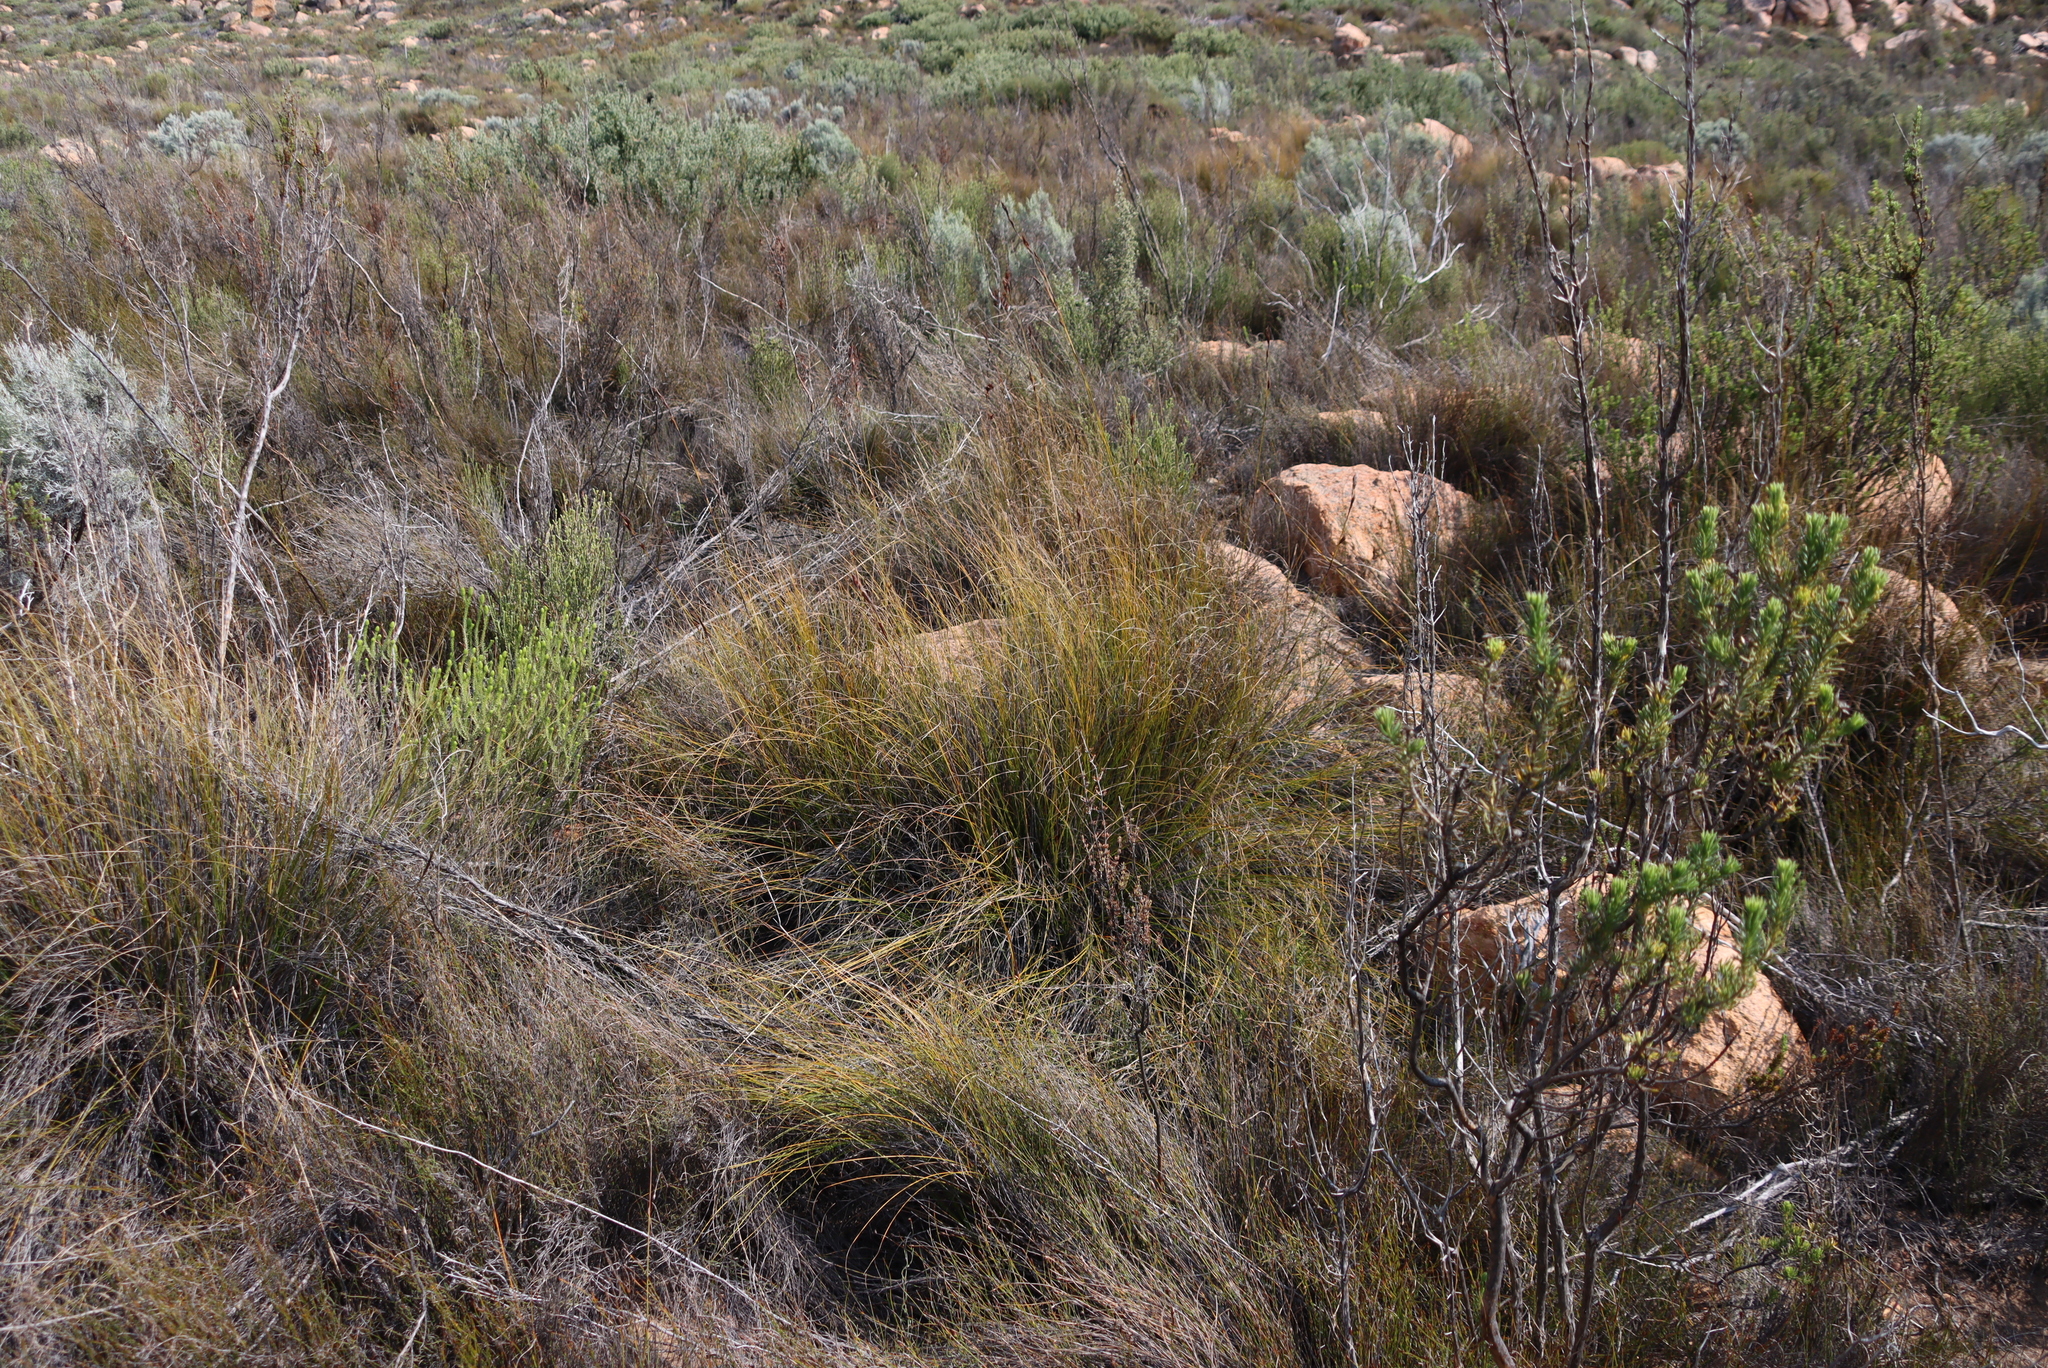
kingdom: Plantae
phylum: Tracheophyta
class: Liliopsida
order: Poales
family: Cyperaceae
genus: Tetraria
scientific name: Tetraria ustulata
